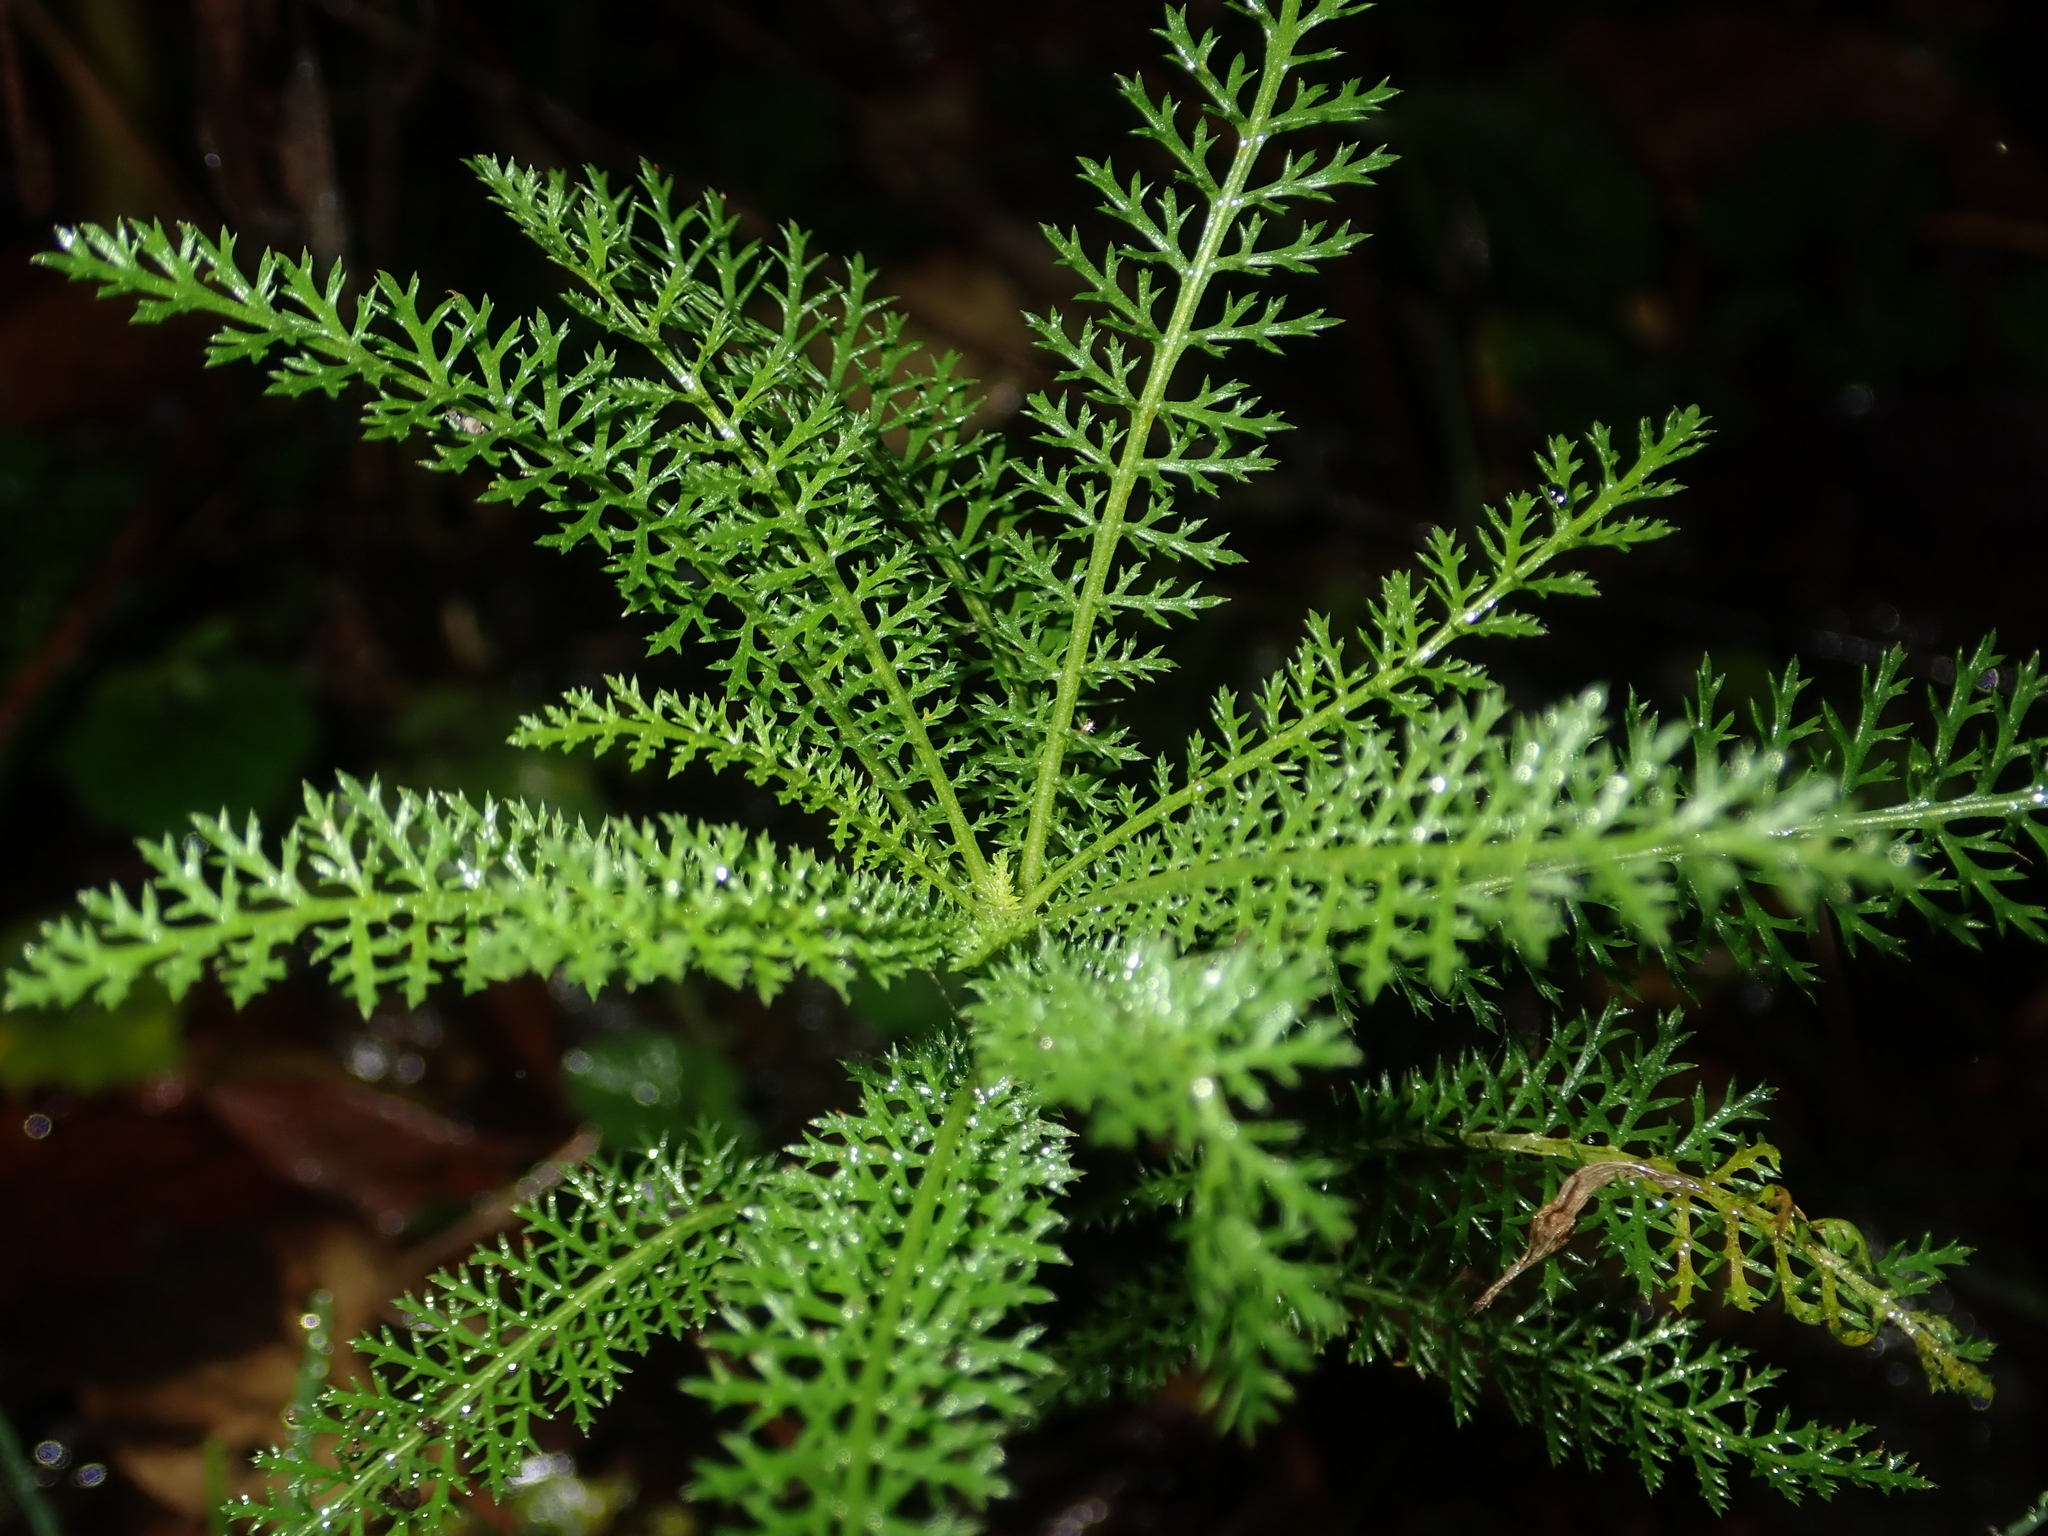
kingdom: Plantae
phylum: Tracheophyta
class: Magnoliopsida
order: Asterales
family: Asteraceae
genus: Achillea
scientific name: Achillea millefolium
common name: Yarrow
